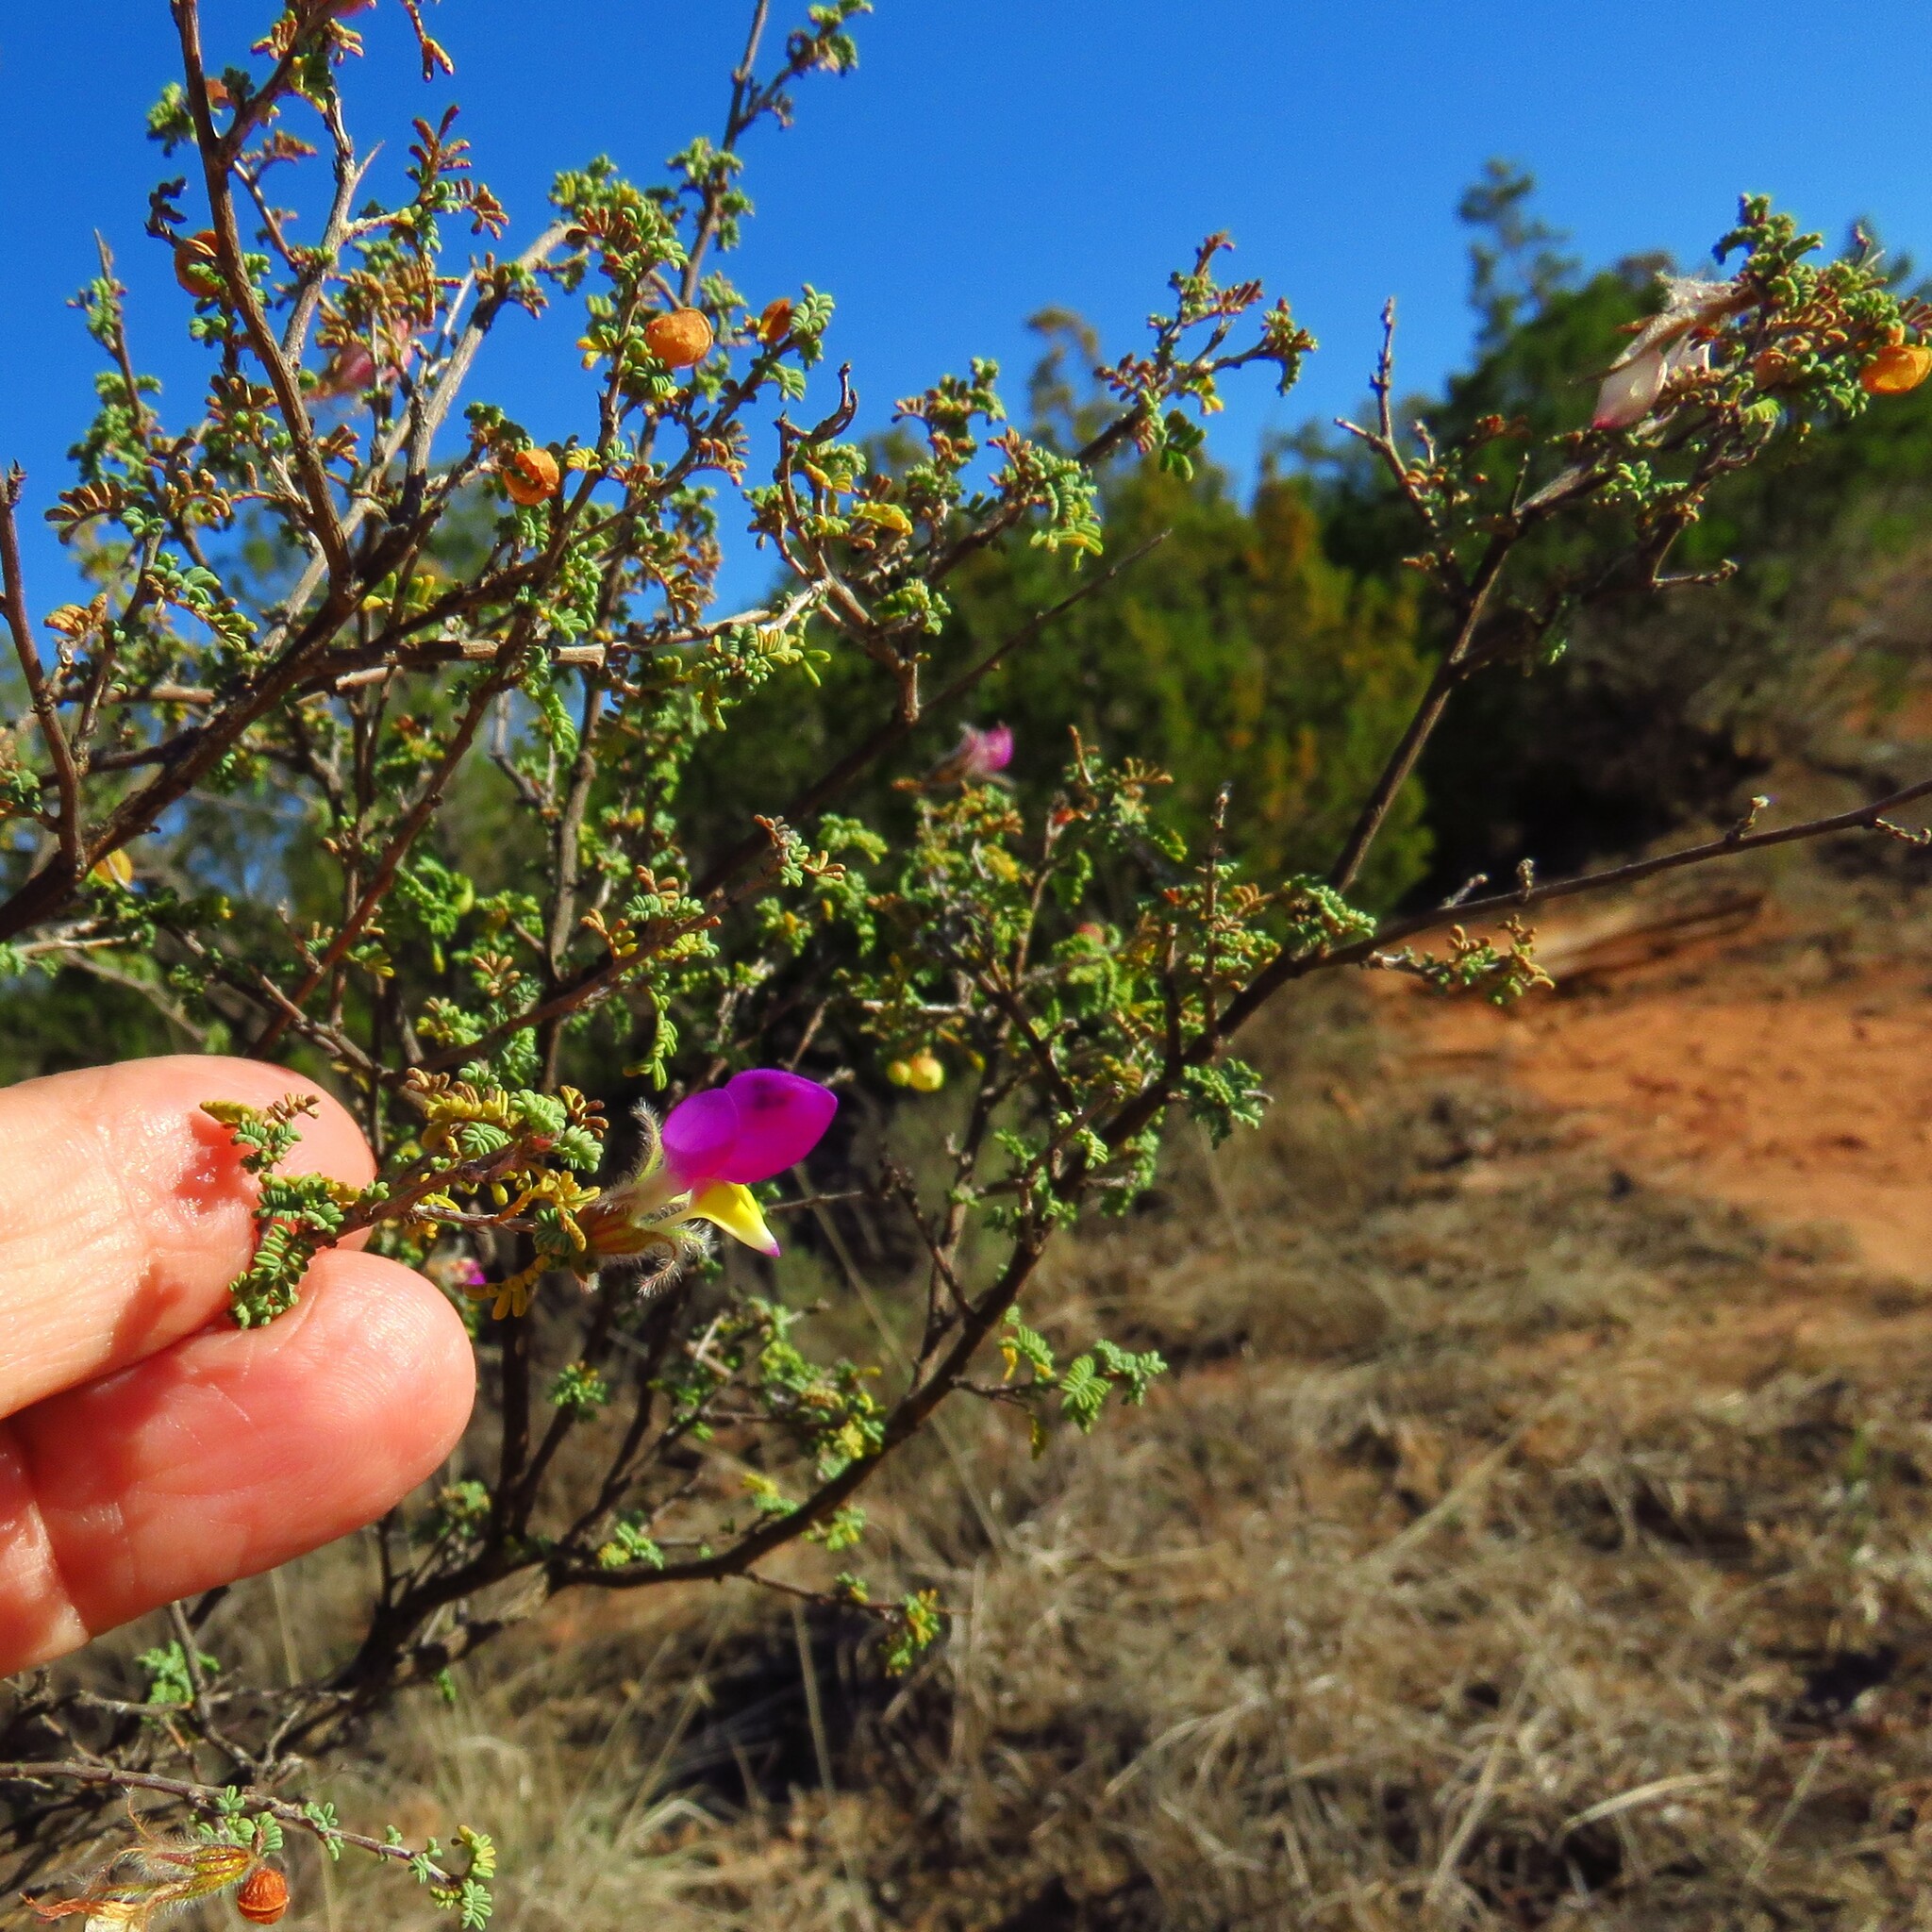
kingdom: Plantae
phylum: Tracheophyta
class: Magnoliopsida
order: Fabales
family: Fabaceae
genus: Dalea
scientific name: Dalea formosa
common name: Feather-plume dalea
